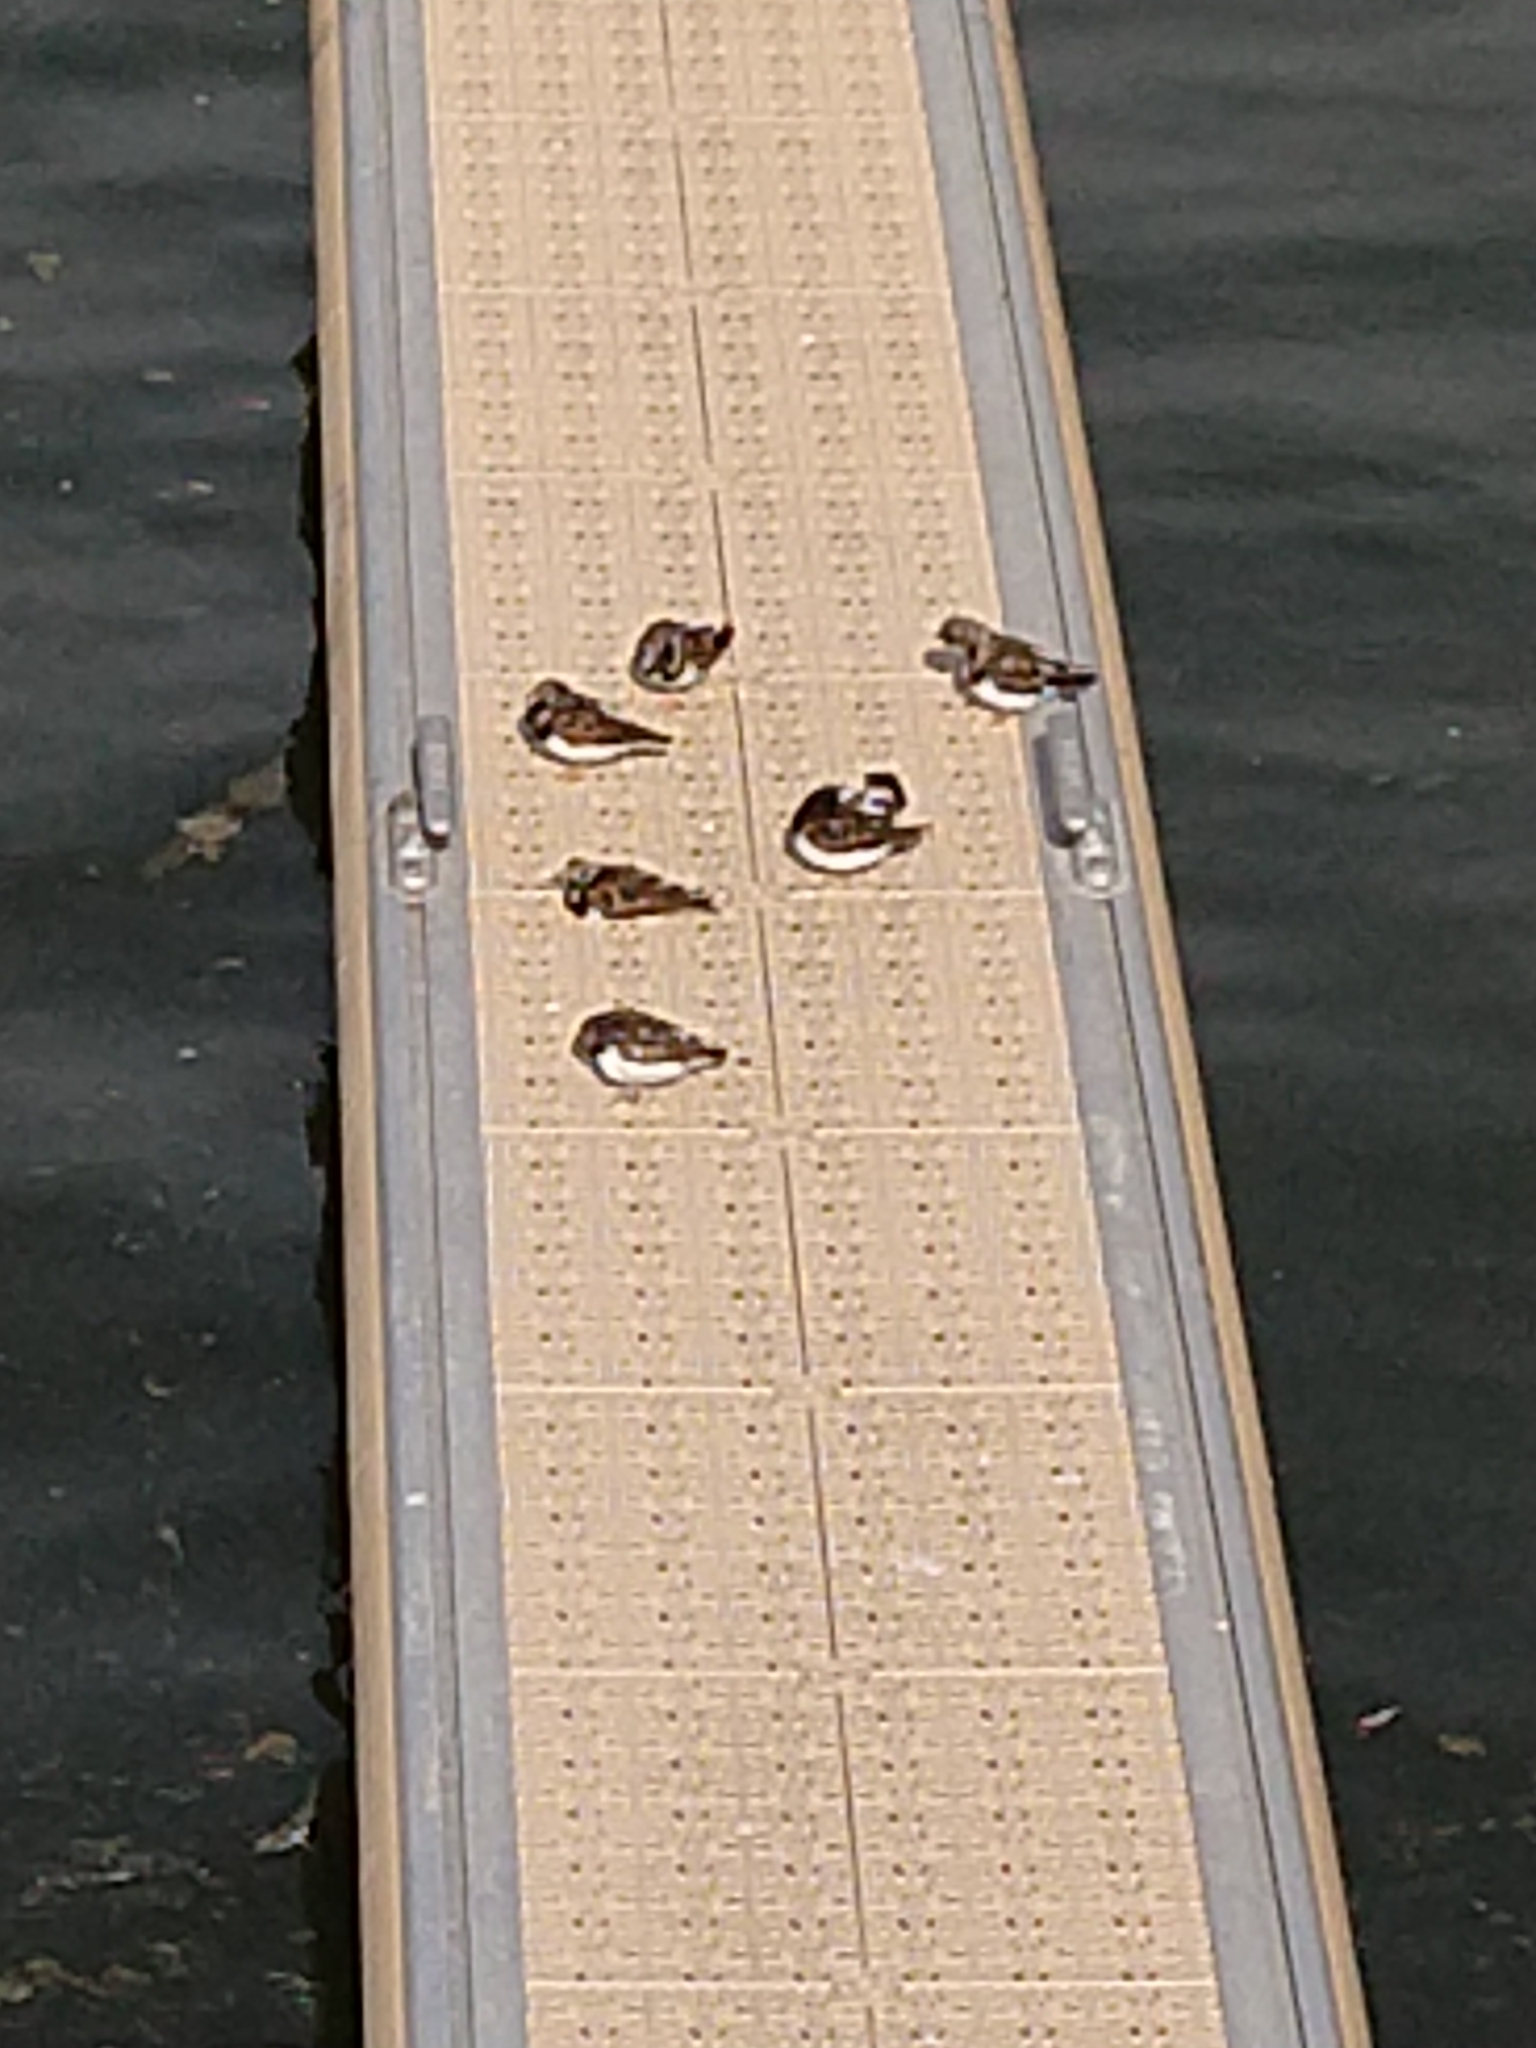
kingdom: Animalia
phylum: Chordata
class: Aves
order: Charadriiformes
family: Scolopacidae
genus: Arenaria
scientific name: Arenaria interpres
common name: Ruddy turnstone
